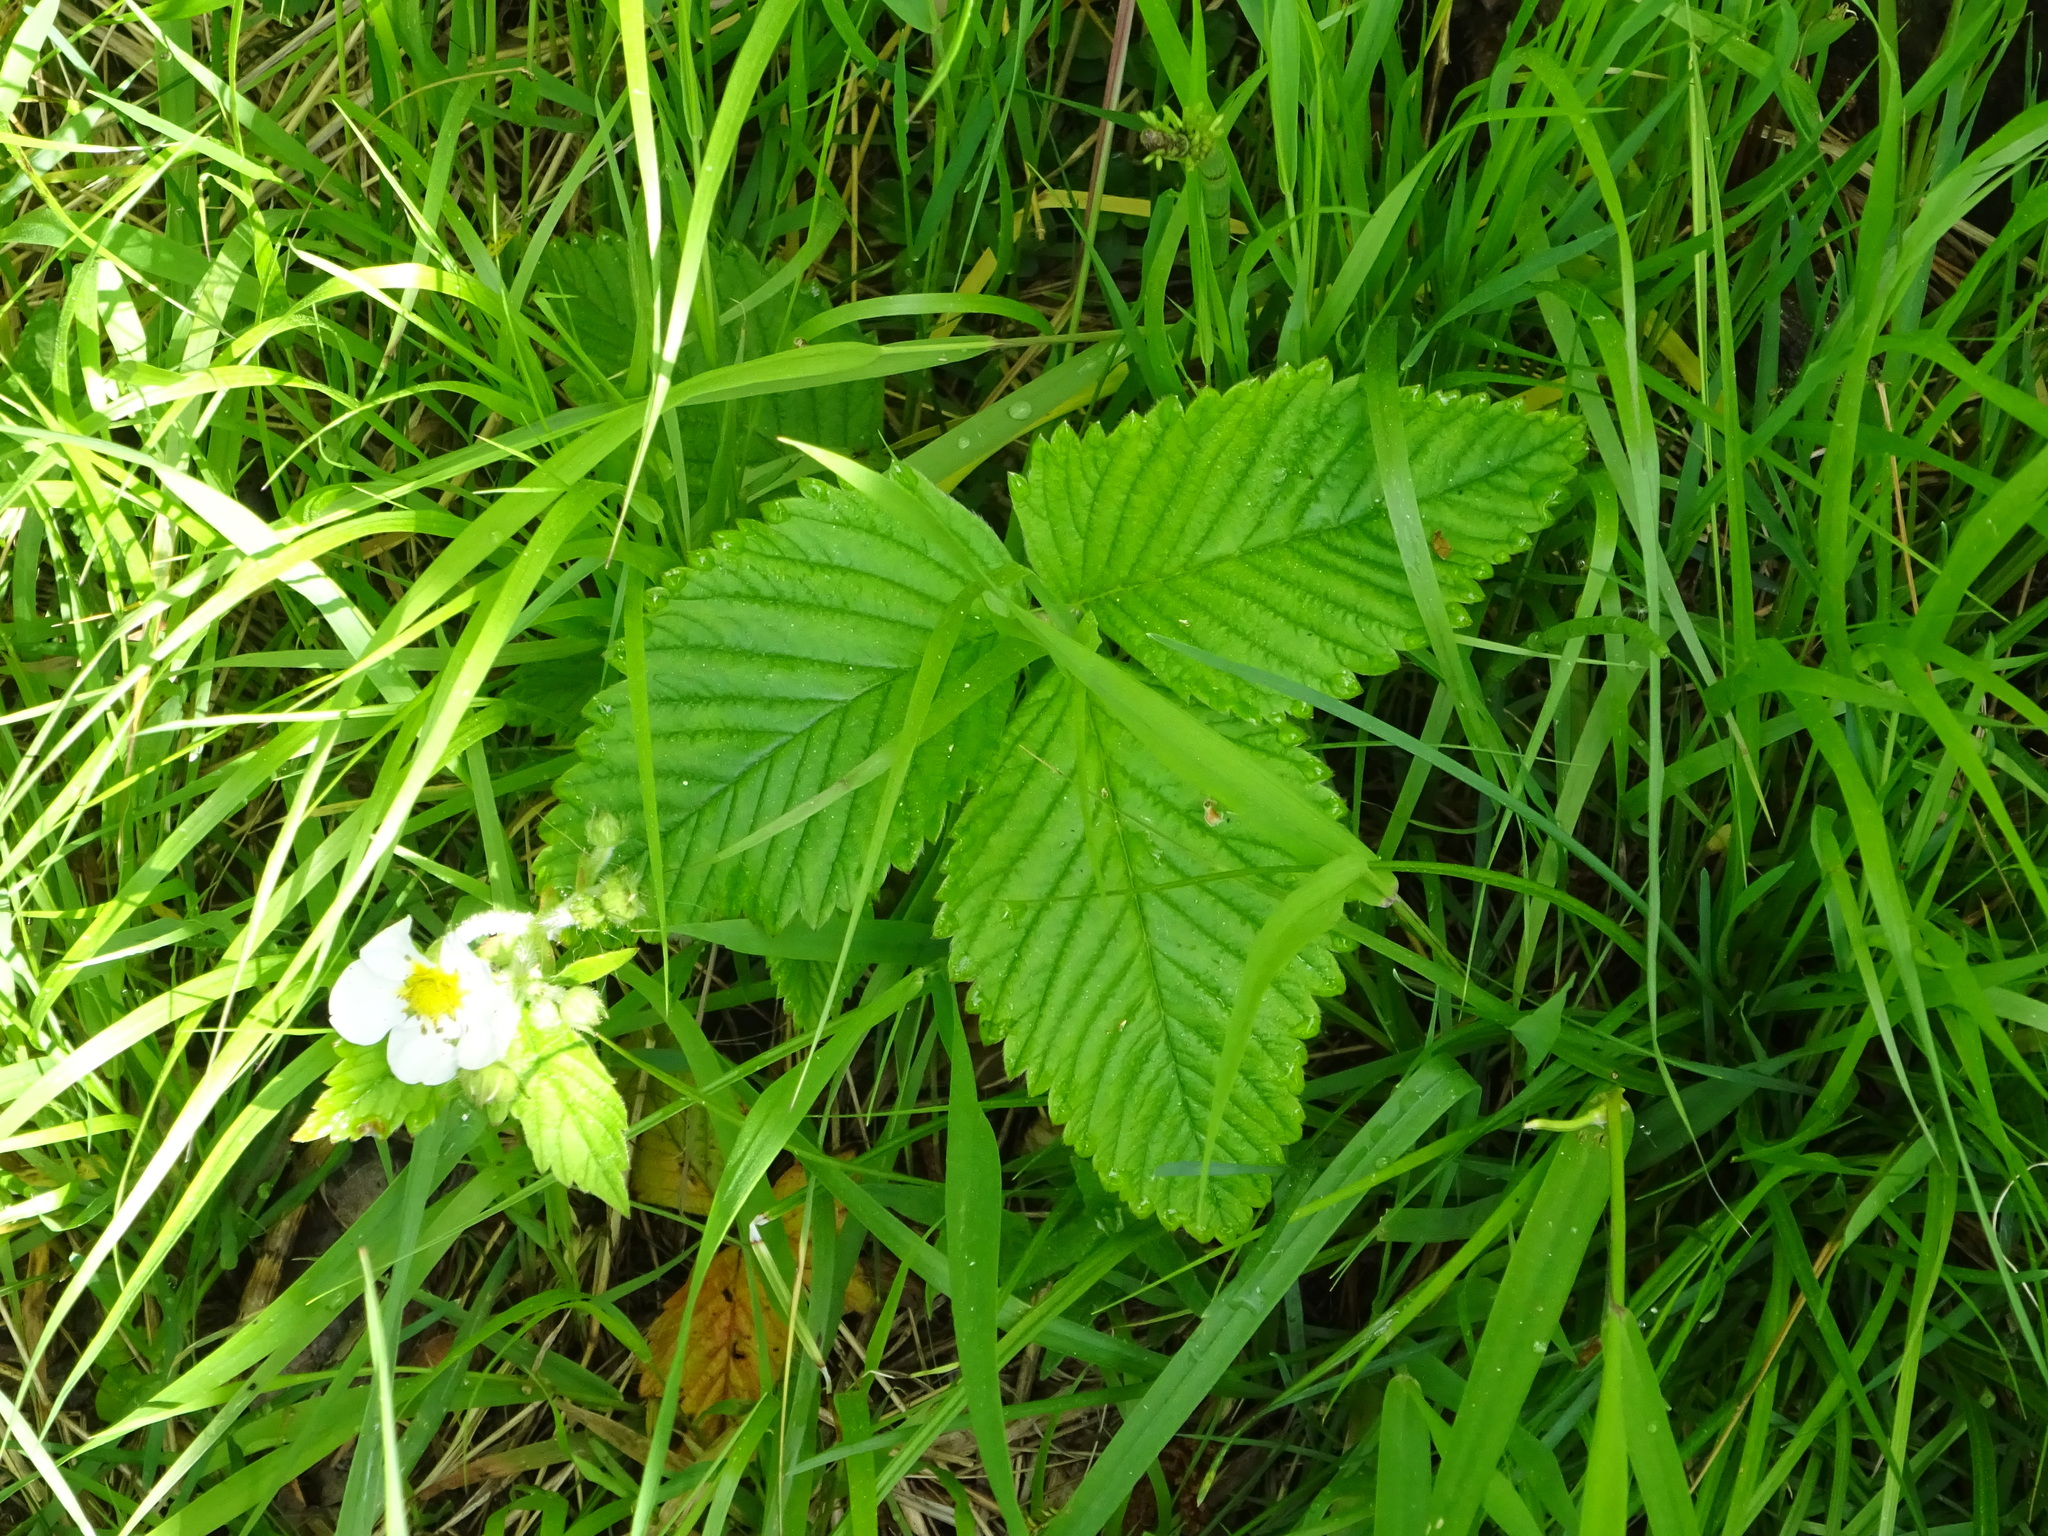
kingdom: Plantae
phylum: Tracheophyta
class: Magnoliopsida
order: Rosales
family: Rosaceae
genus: Fragaria
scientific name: Fragaria moschata
